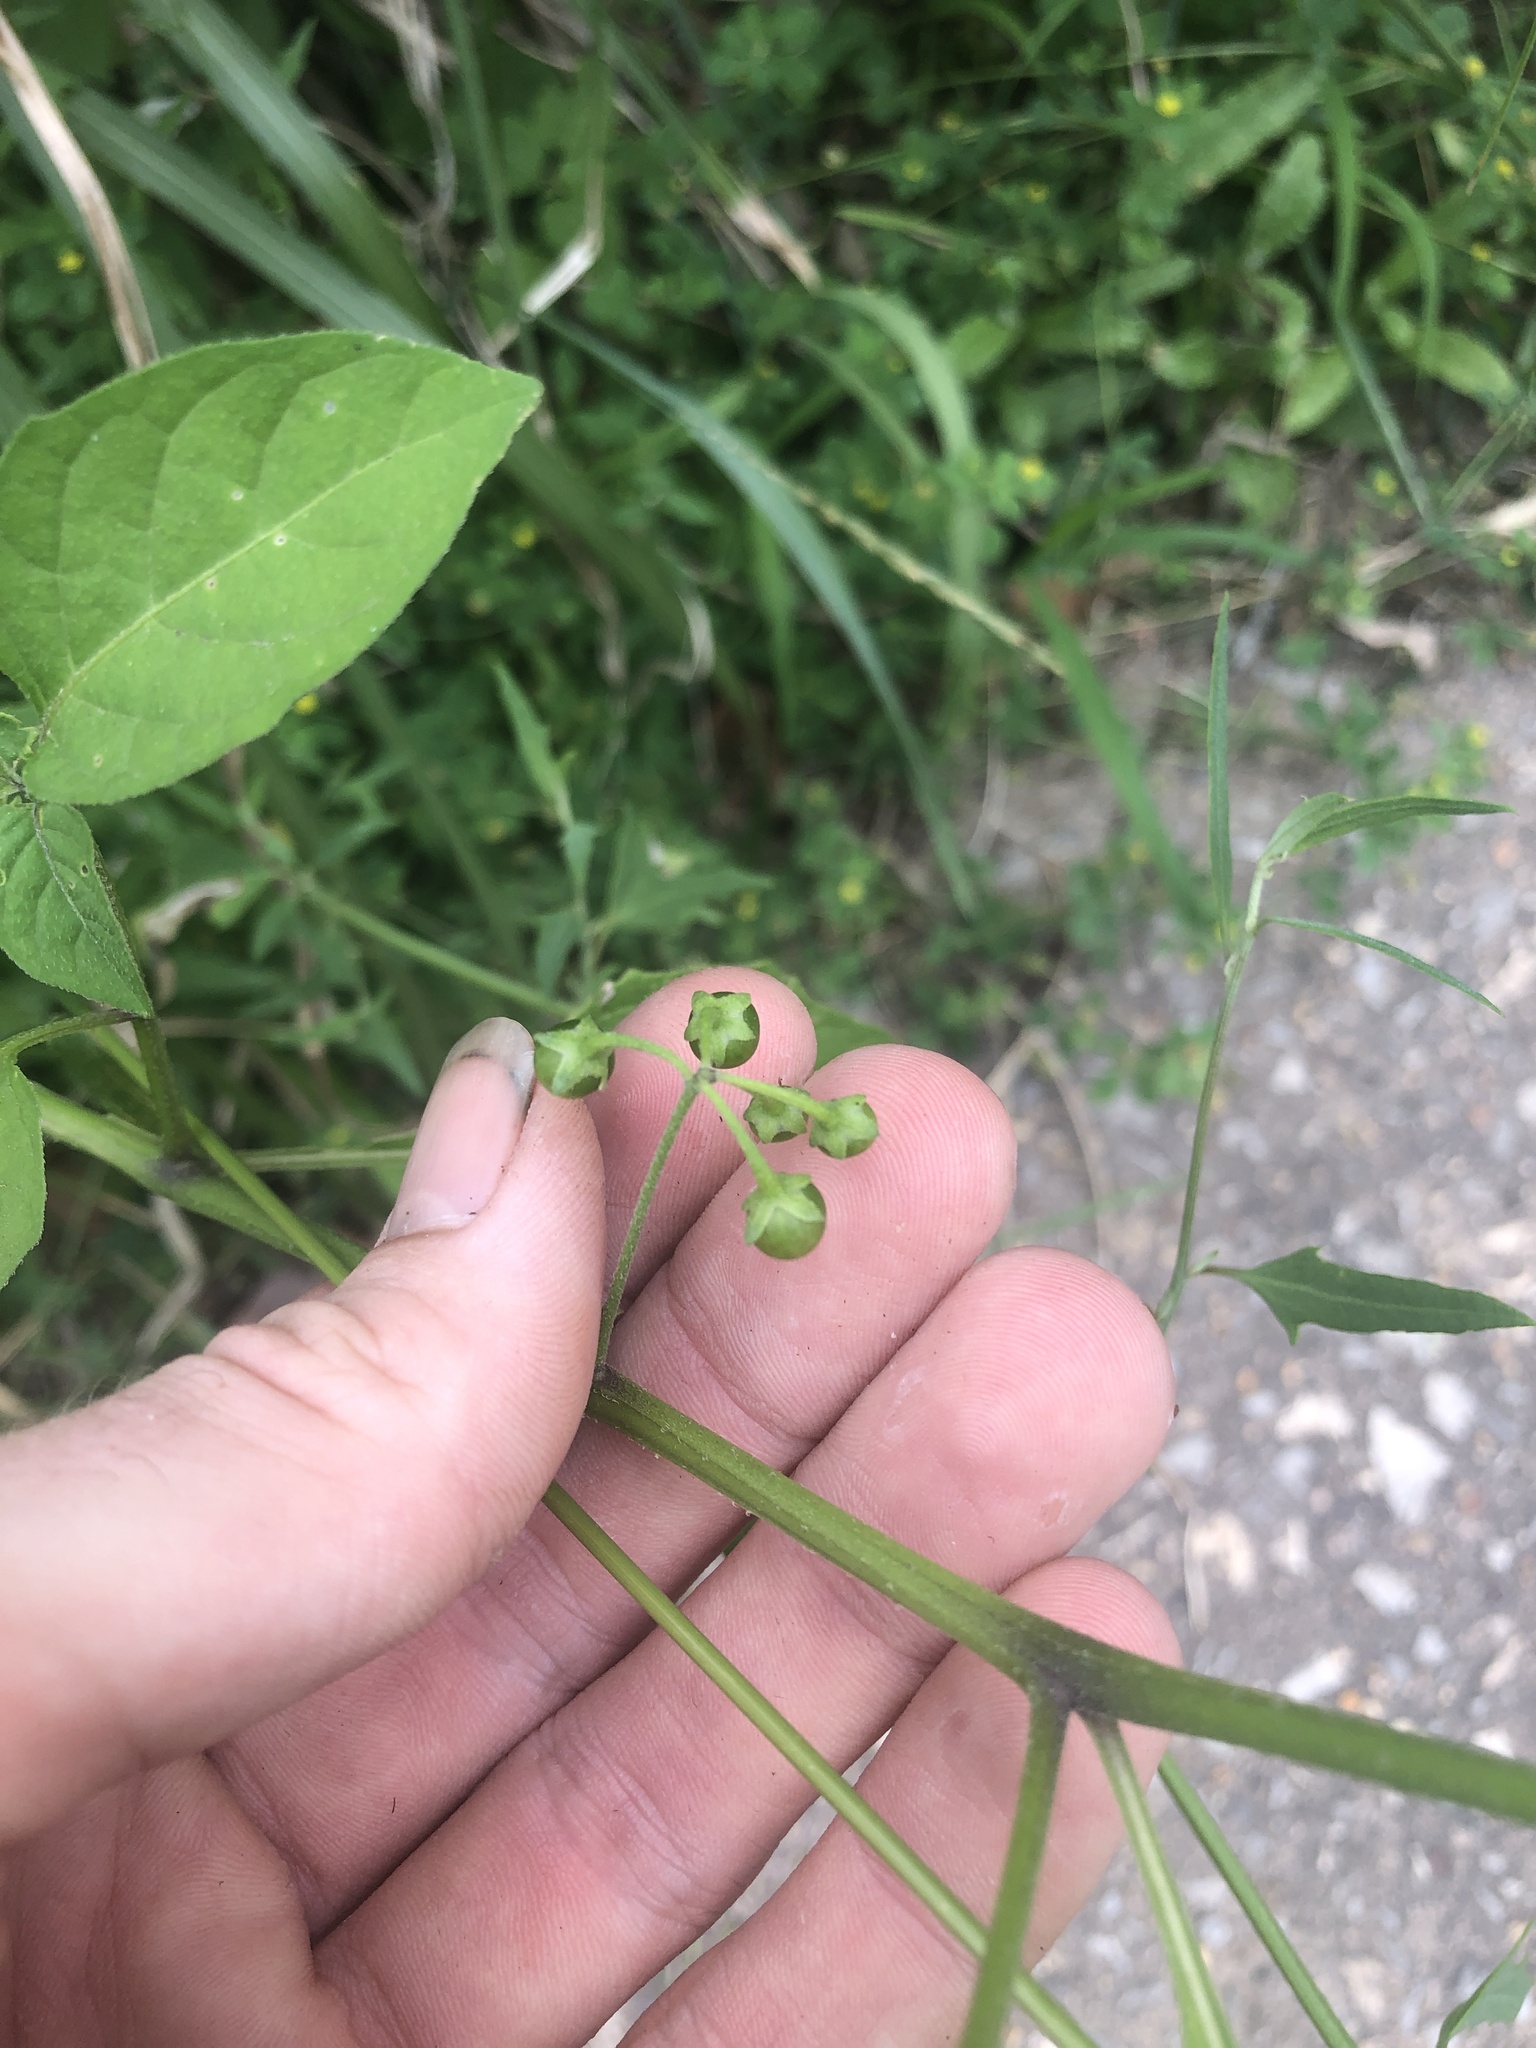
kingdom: Plantae
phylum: Tracheophyta
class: Magnoliopsida
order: Solanales
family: Solanaceae
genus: Solanum
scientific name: Solanum emulans
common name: Eastern black nightshade
